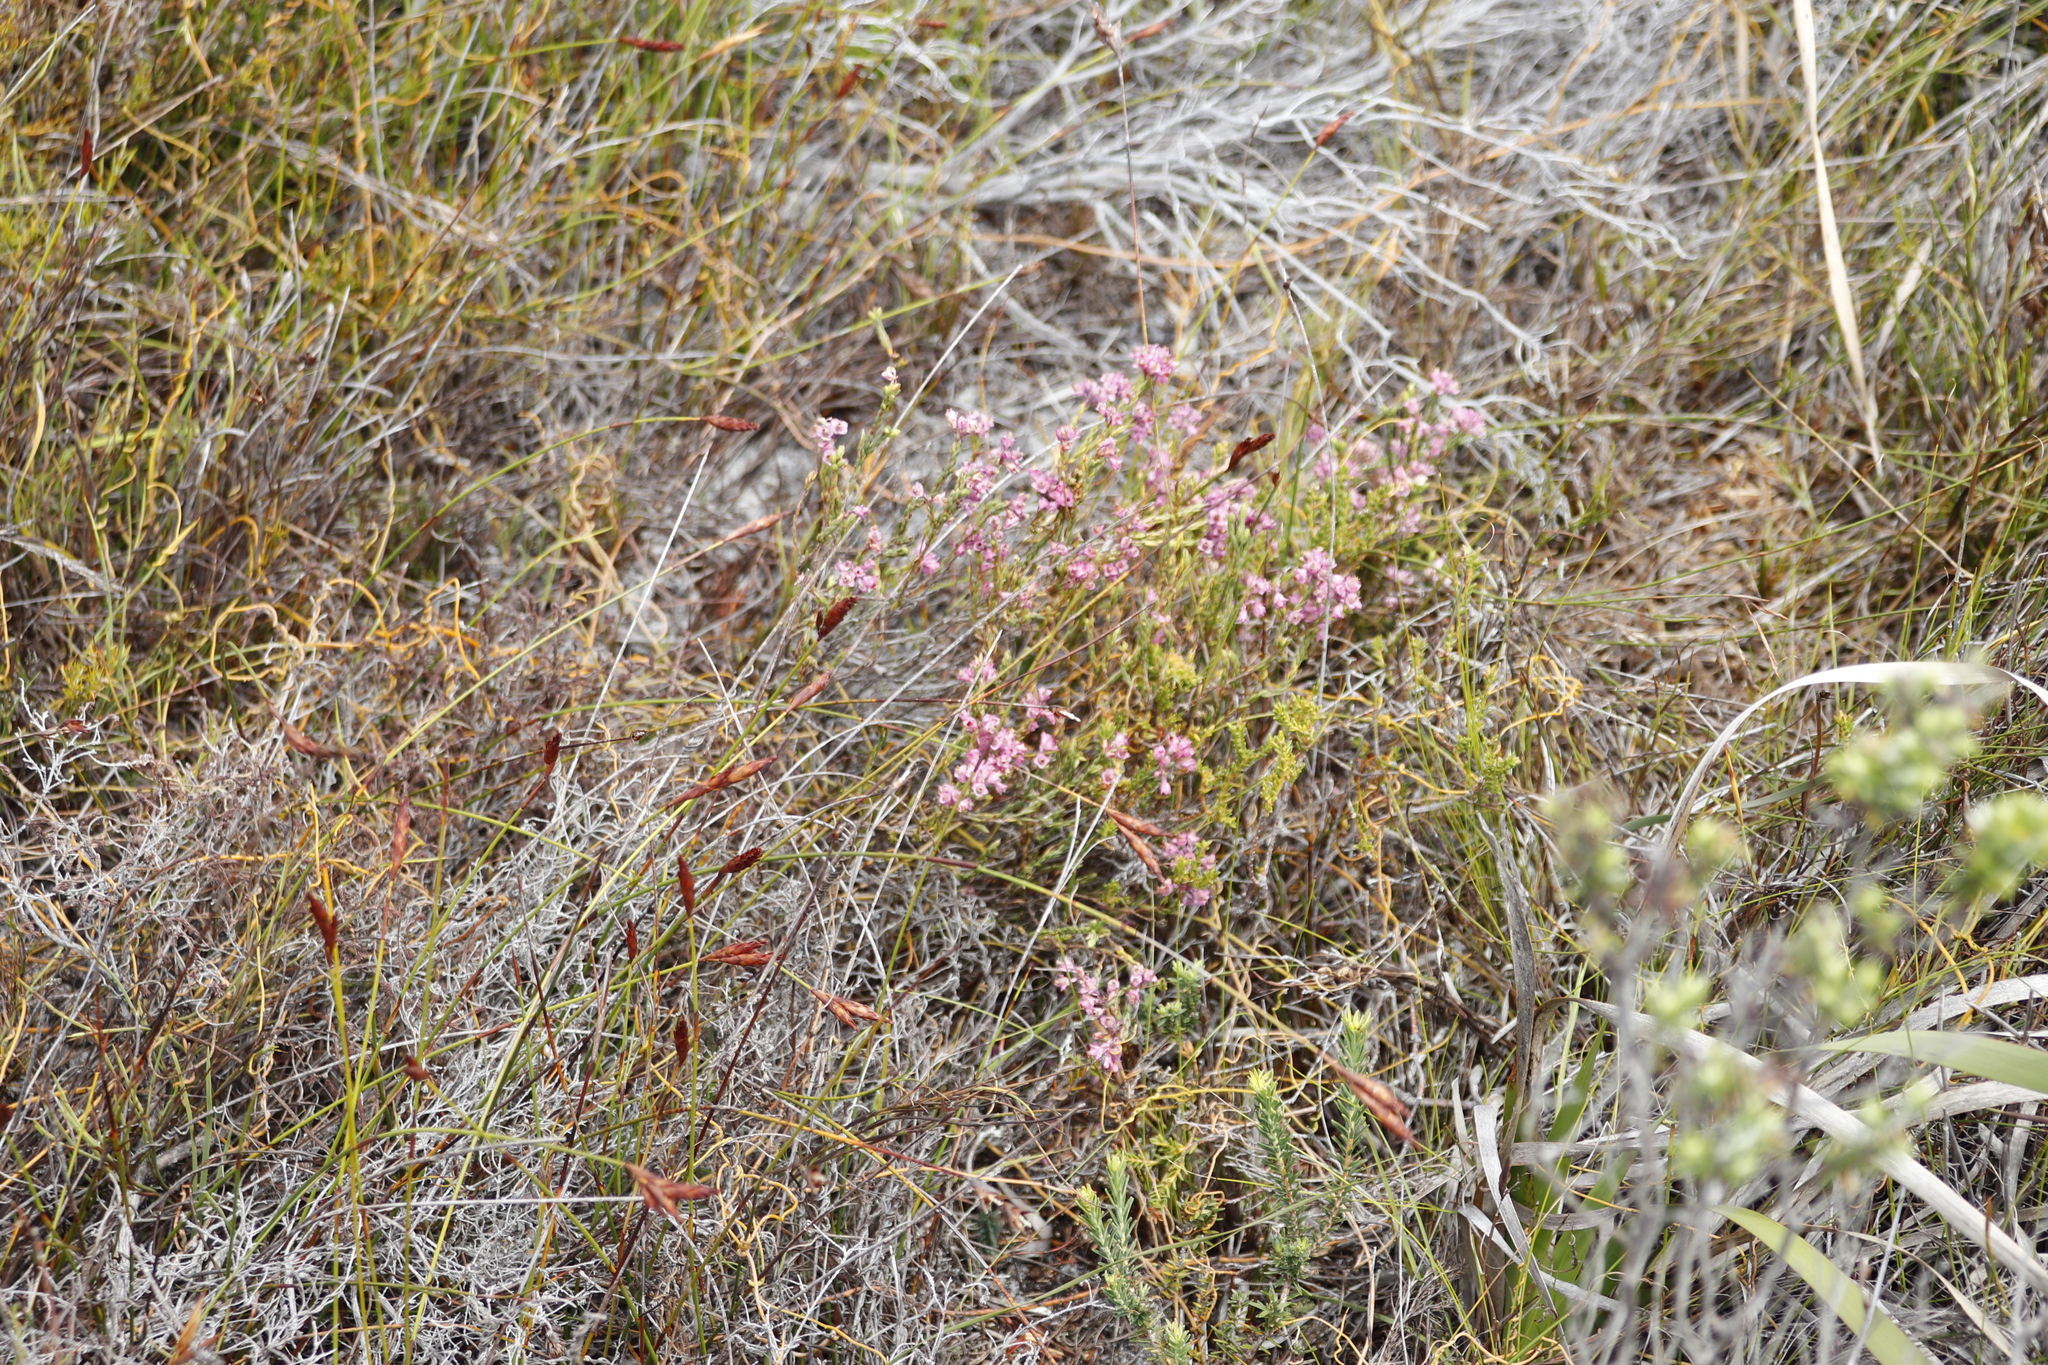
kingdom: Plantae
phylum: Tracheophyta
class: Magnoliopsida
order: Ericales
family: Ericaceae
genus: Erica
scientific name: Erica corifolia
